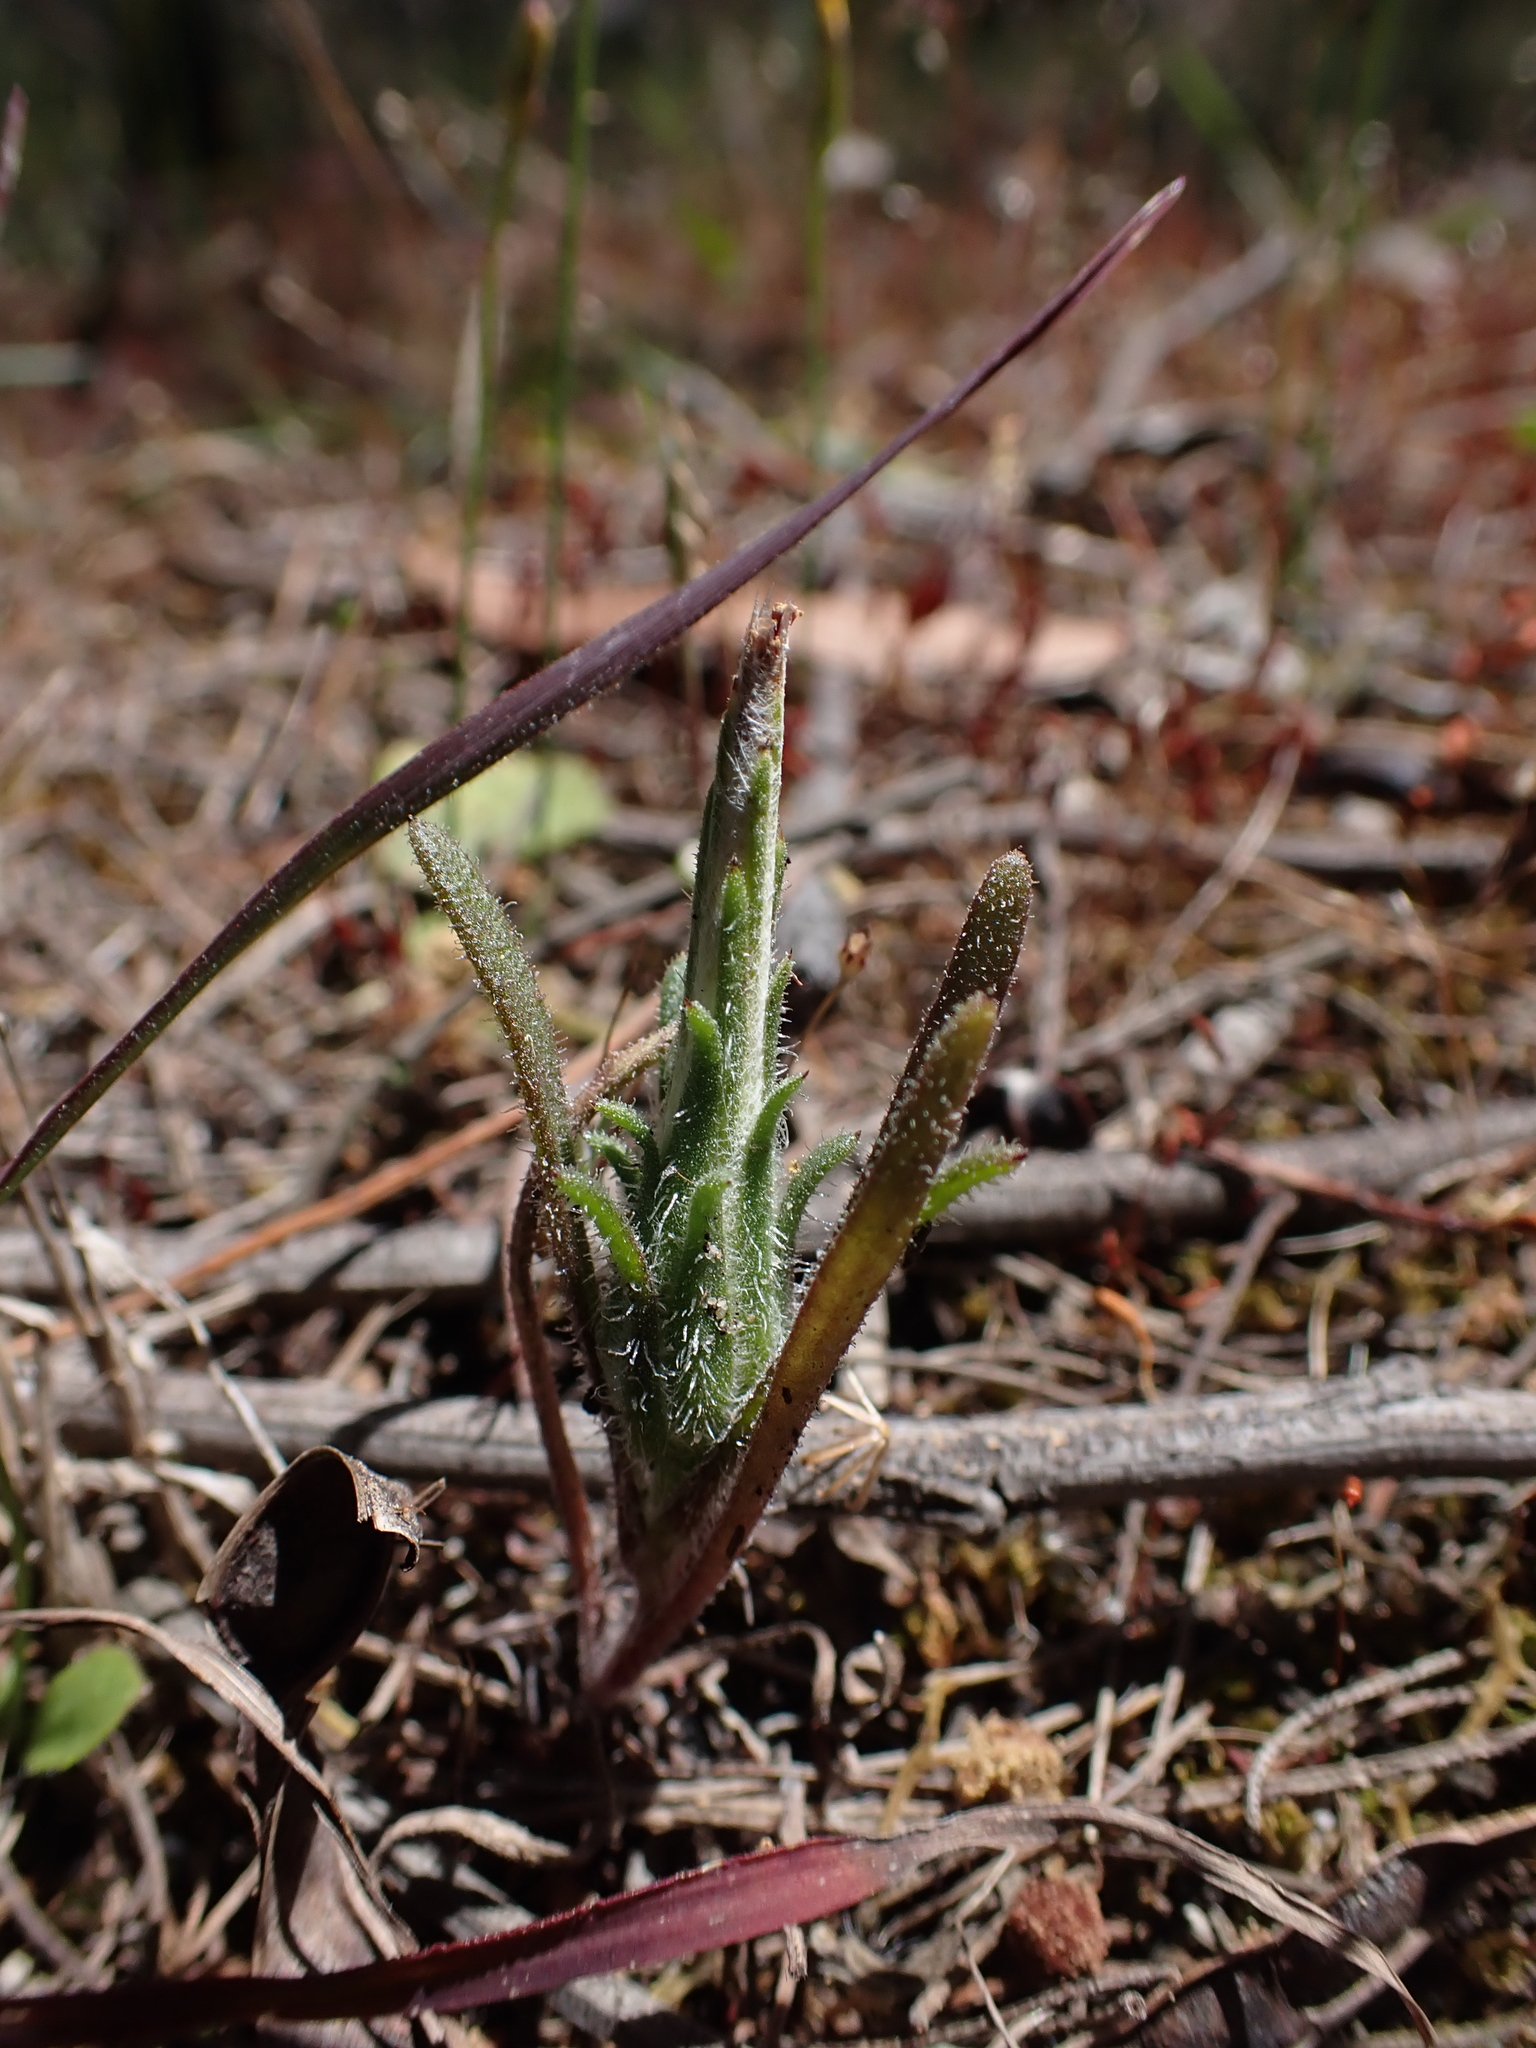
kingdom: Plantae
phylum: Tracheophyta
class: Magnoliopsida
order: Asterales
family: Asteraceae
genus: Podotheca
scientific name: Podotheca angustifolia
